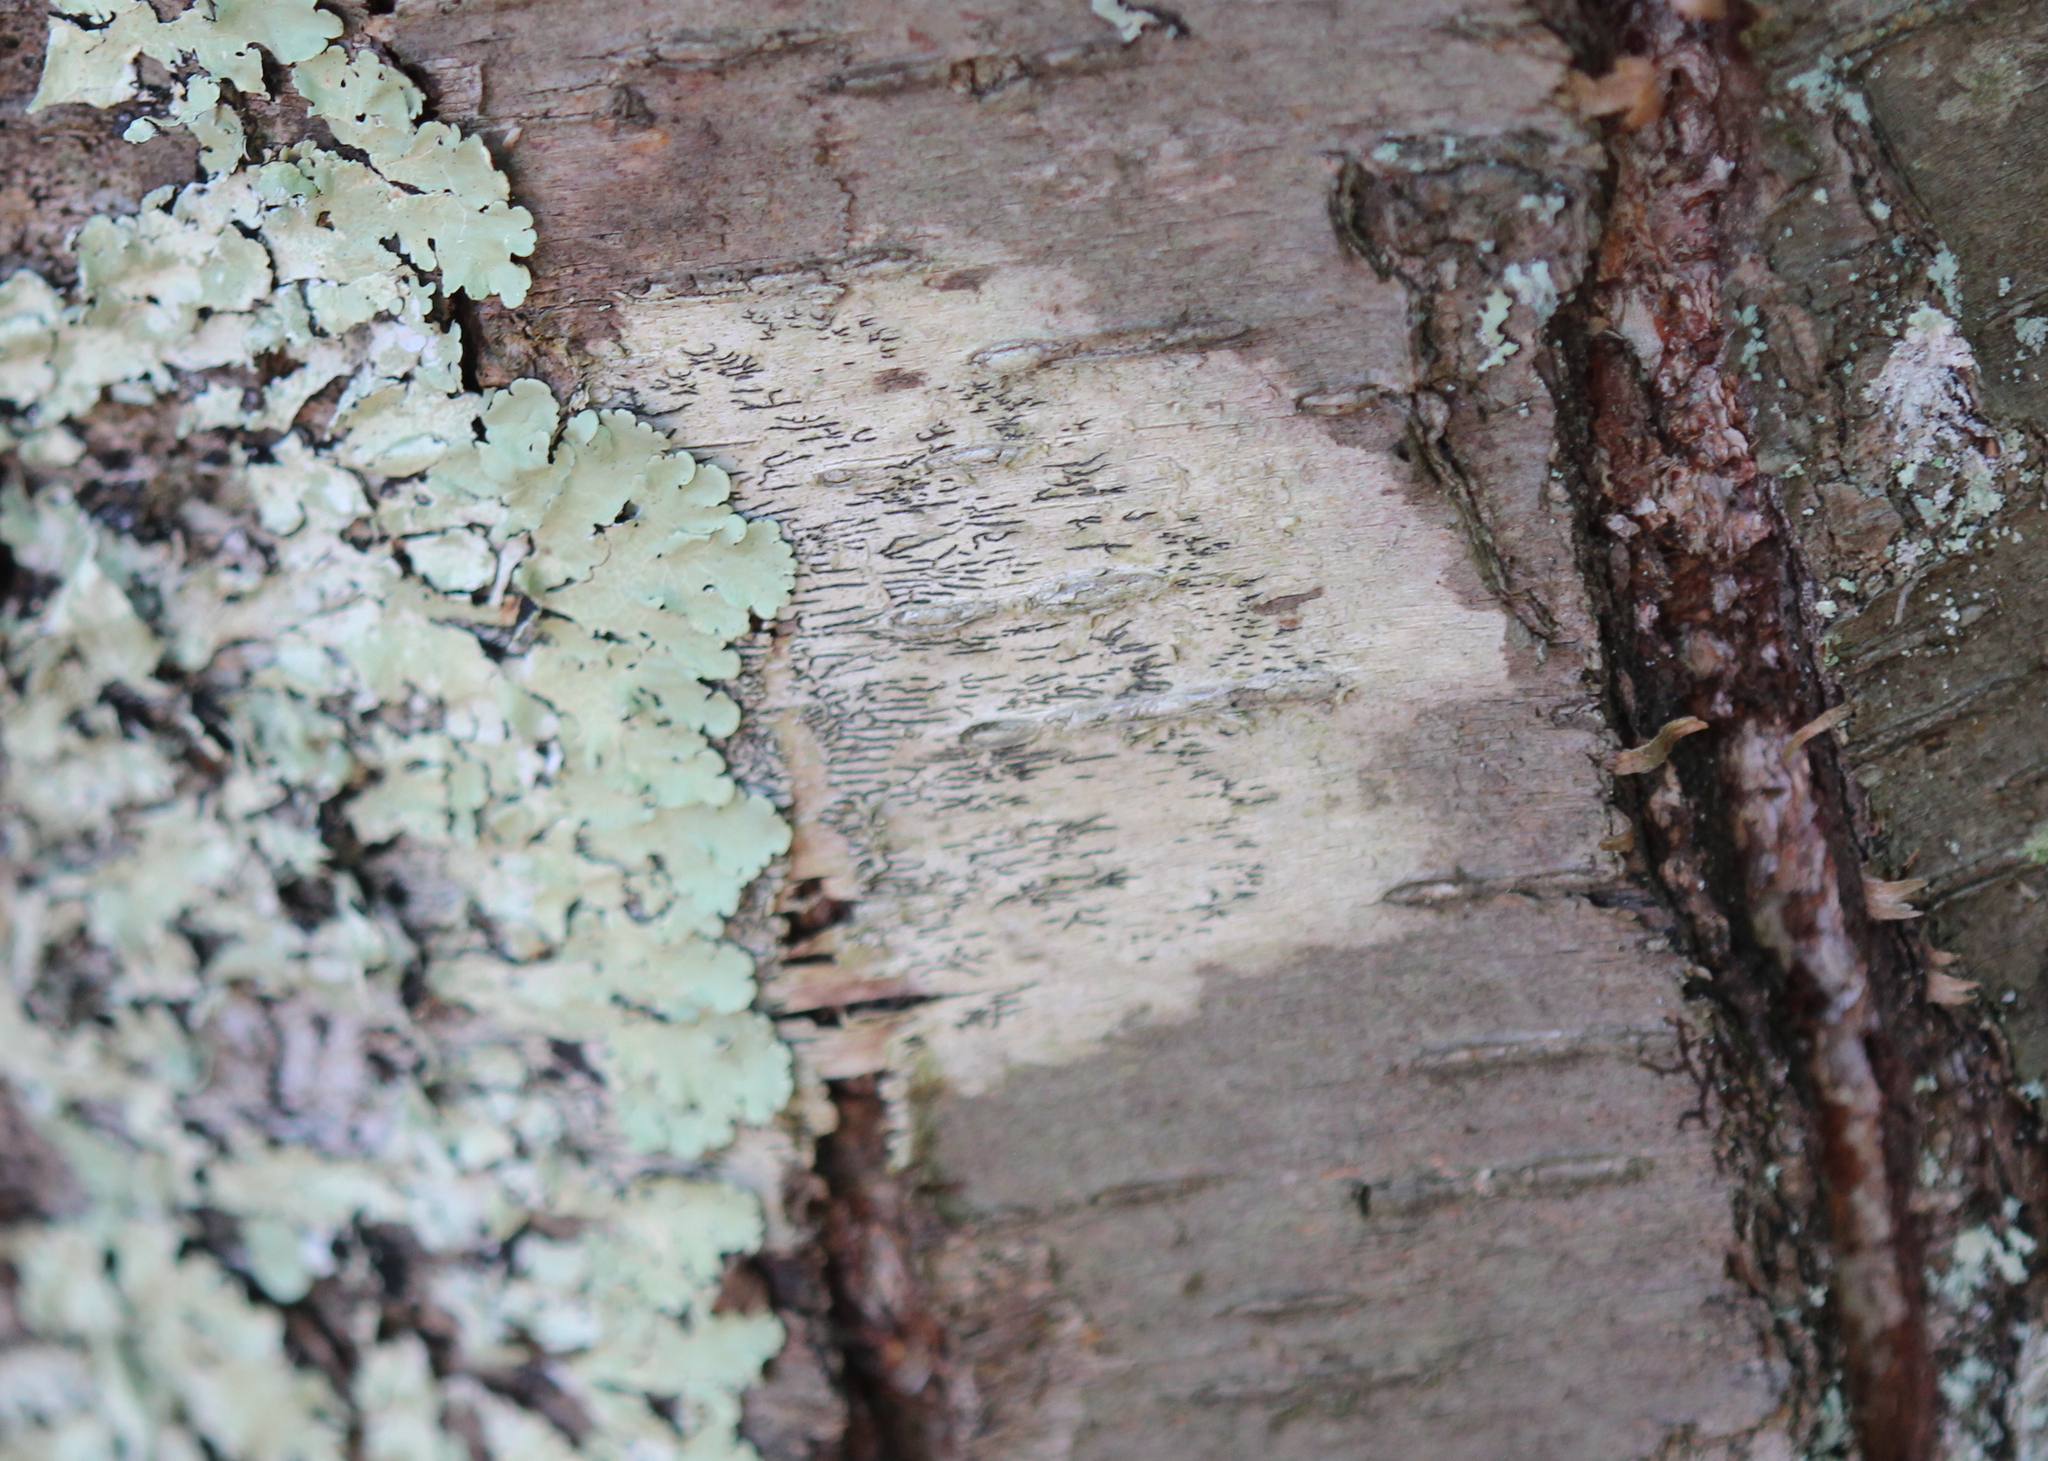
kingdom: Fungi
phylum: Ascomycota
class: Lecanoromycetes
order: Ostropales
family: Graphidaceae
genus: Graphis
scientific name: Graphis scripta
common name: Script lichen
